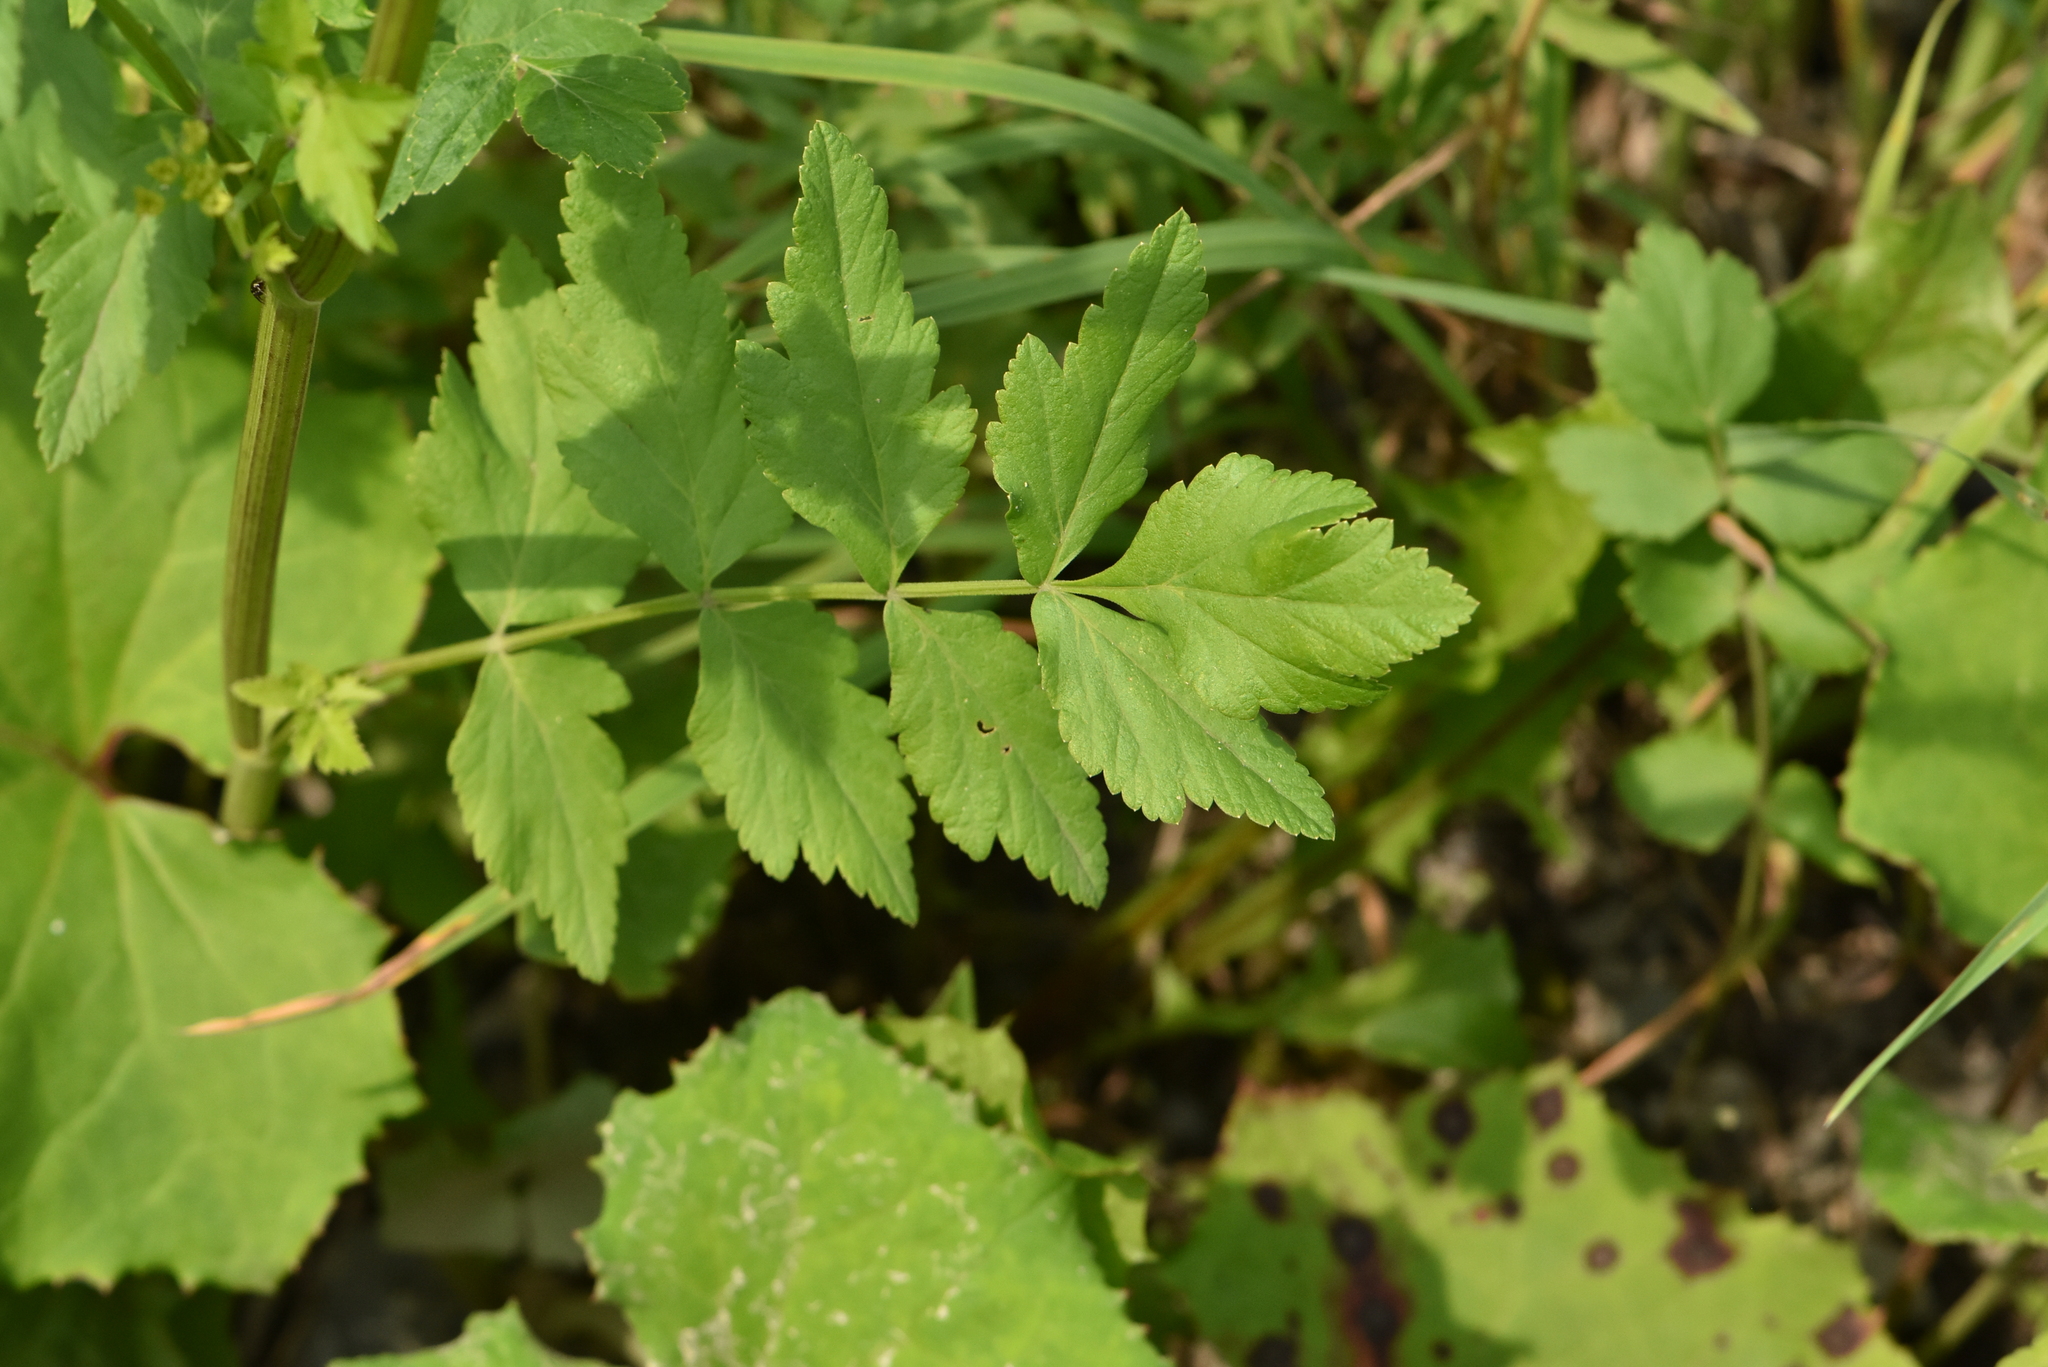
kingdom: Plantae
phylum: Tracheophyta
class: Magnoliopsida
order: Apiales
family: Apiaceae
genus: Pastinaca
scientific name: Pastinaca sativa
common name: Wild parsnip
